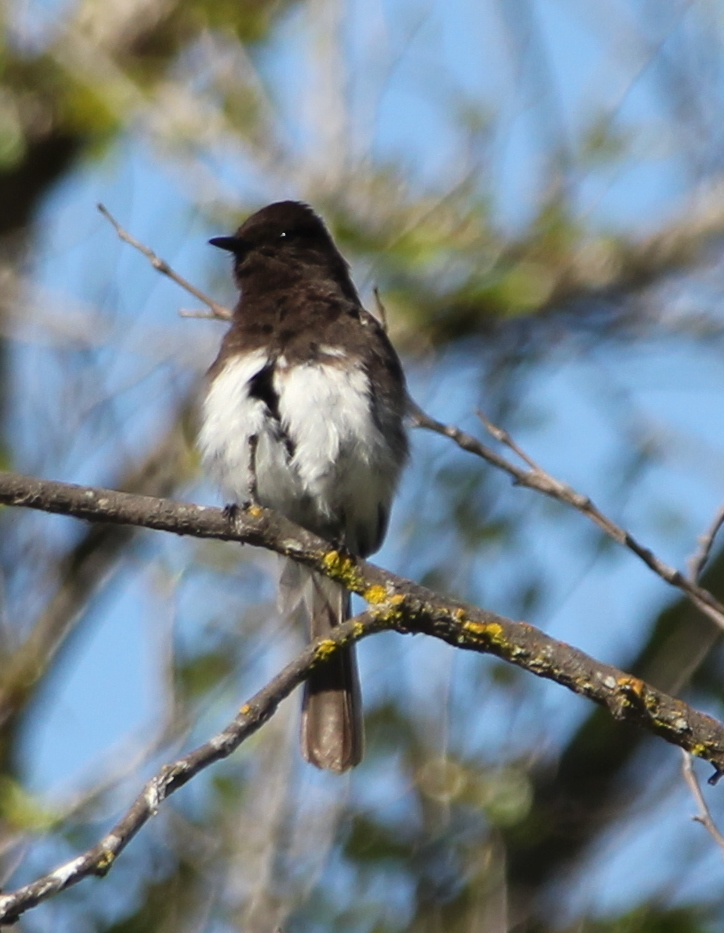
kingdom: Animalia
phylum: Chordata
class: Aves
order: Passeriformes
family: Tyrannidae
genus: Sayornis
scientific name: Sayornis nigricans
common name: Black phoebe
